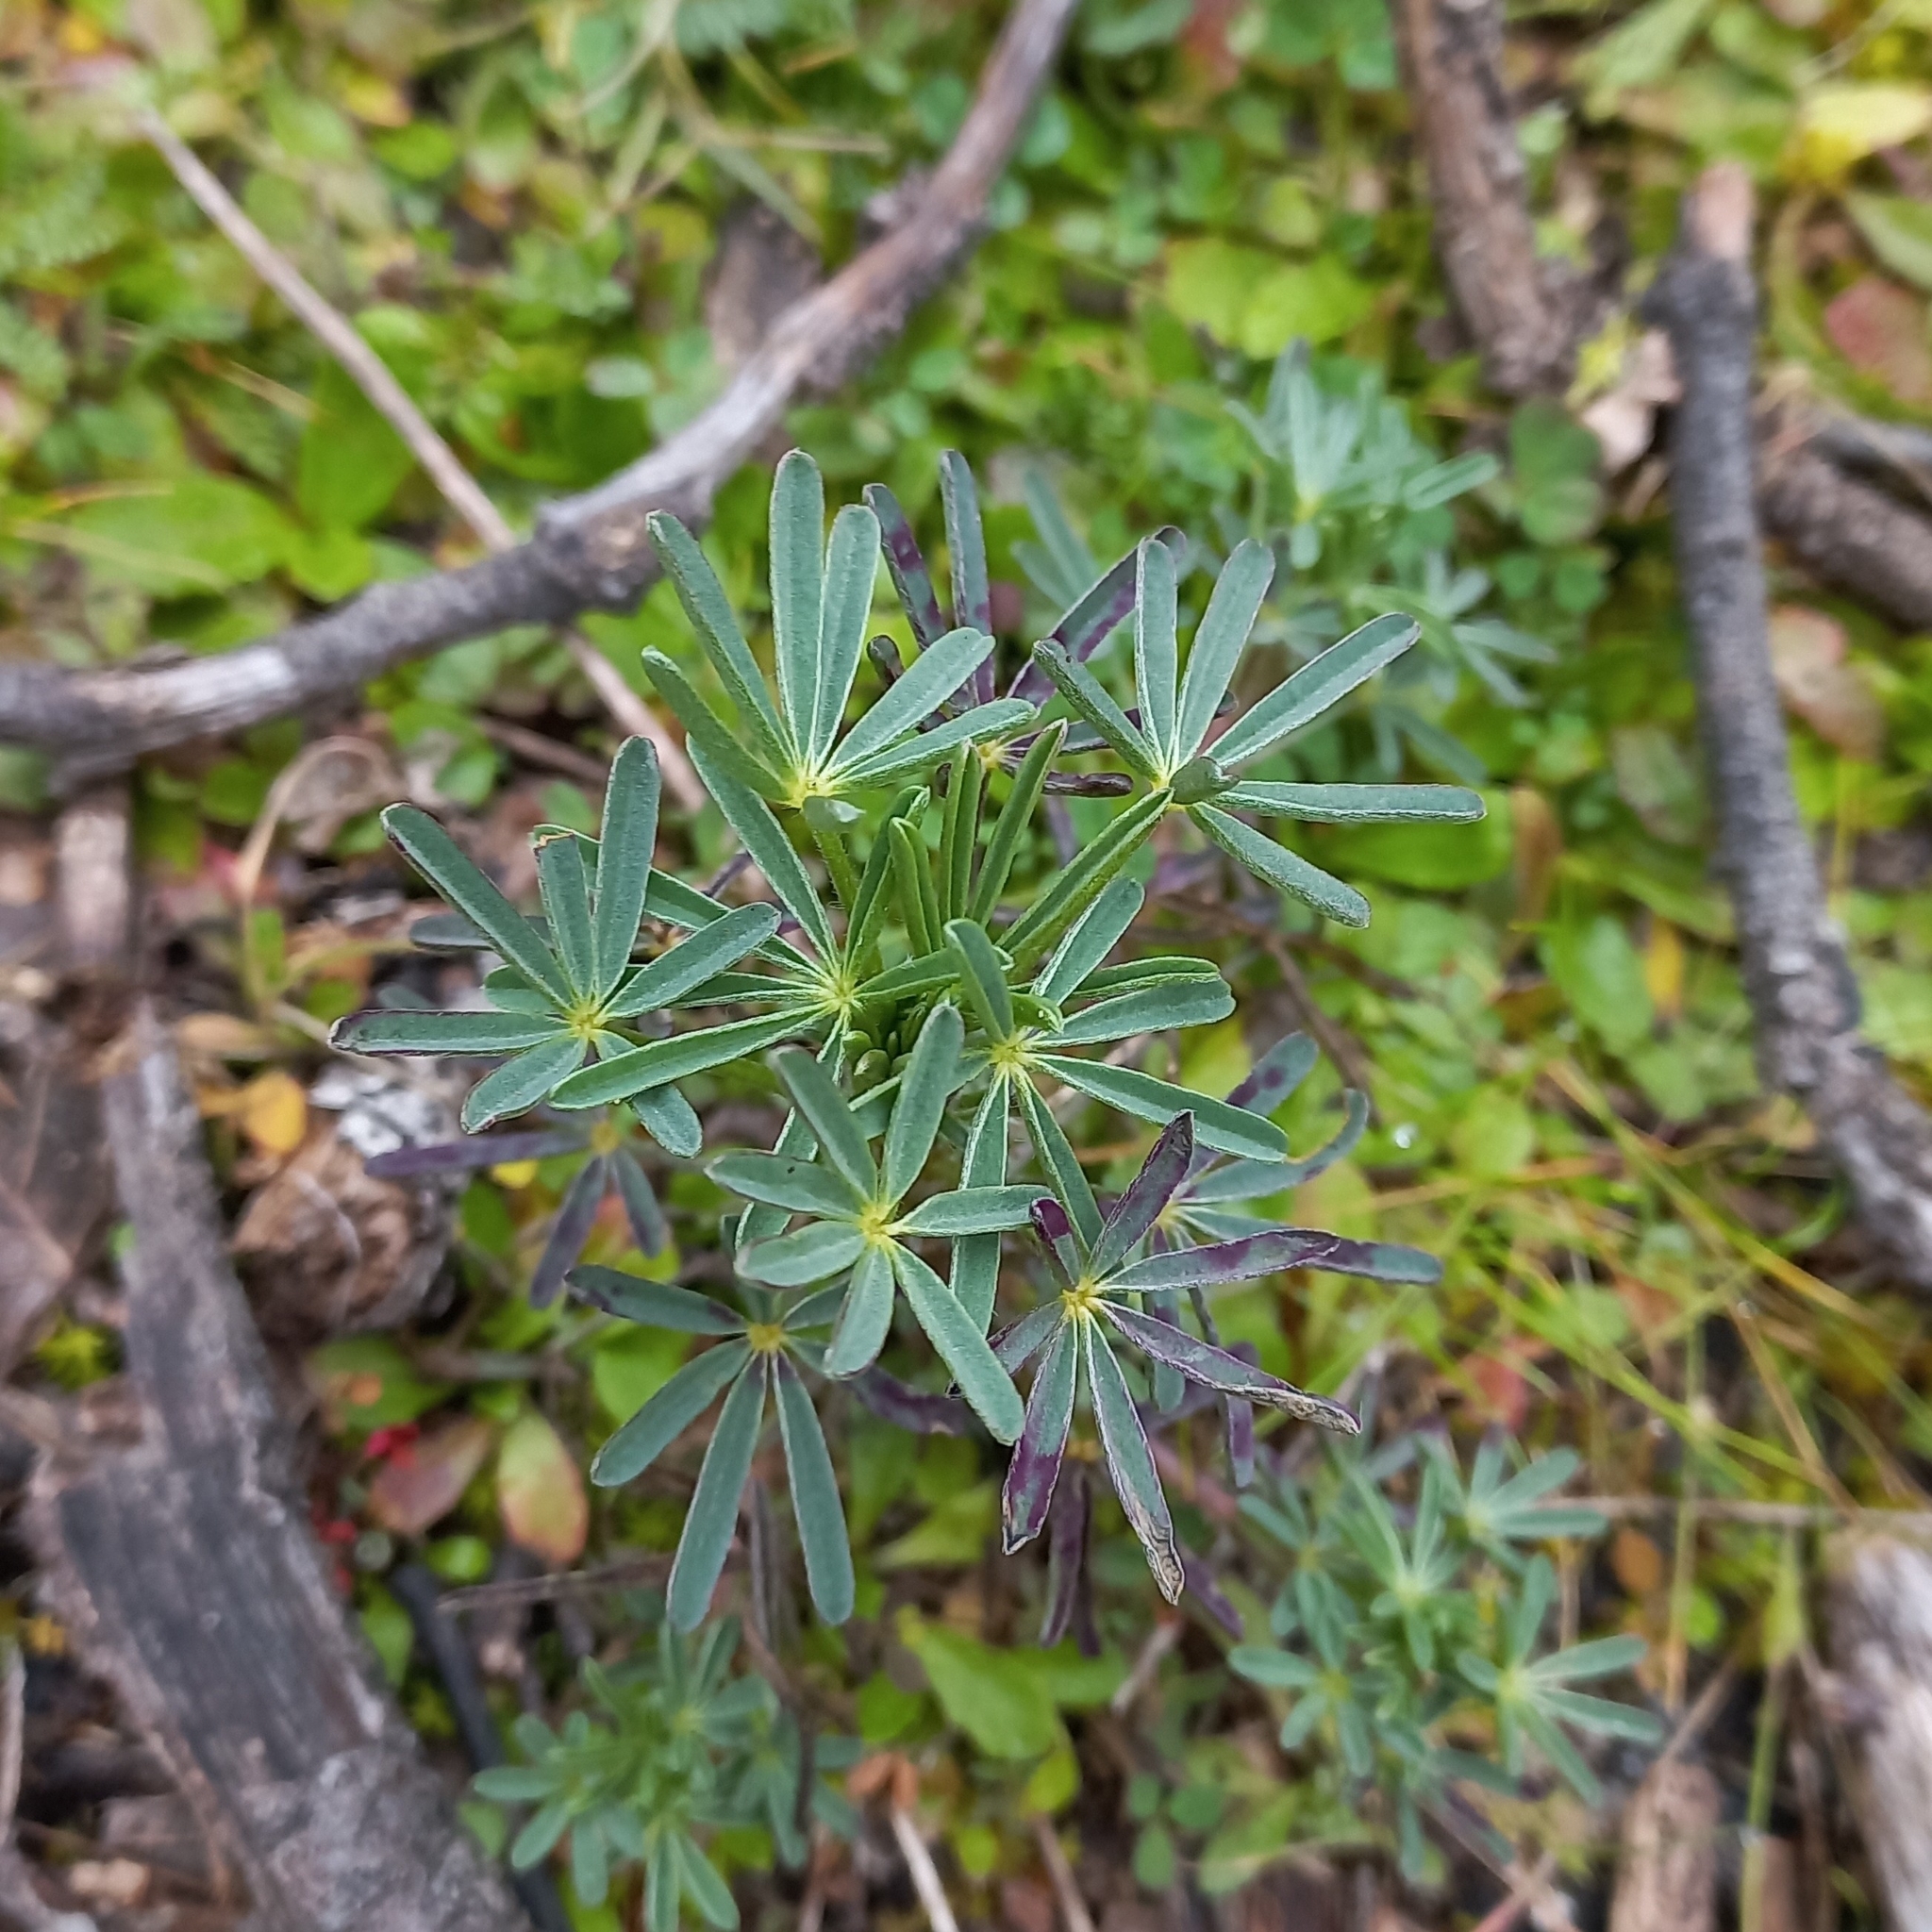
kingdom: Plantae
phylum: Tracheophyta
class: Magnoliopsida
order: Fabales
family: Fabaceae
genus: Lupinus
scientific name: Lupinus angustifolius
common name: Narrow-leaved lupin
